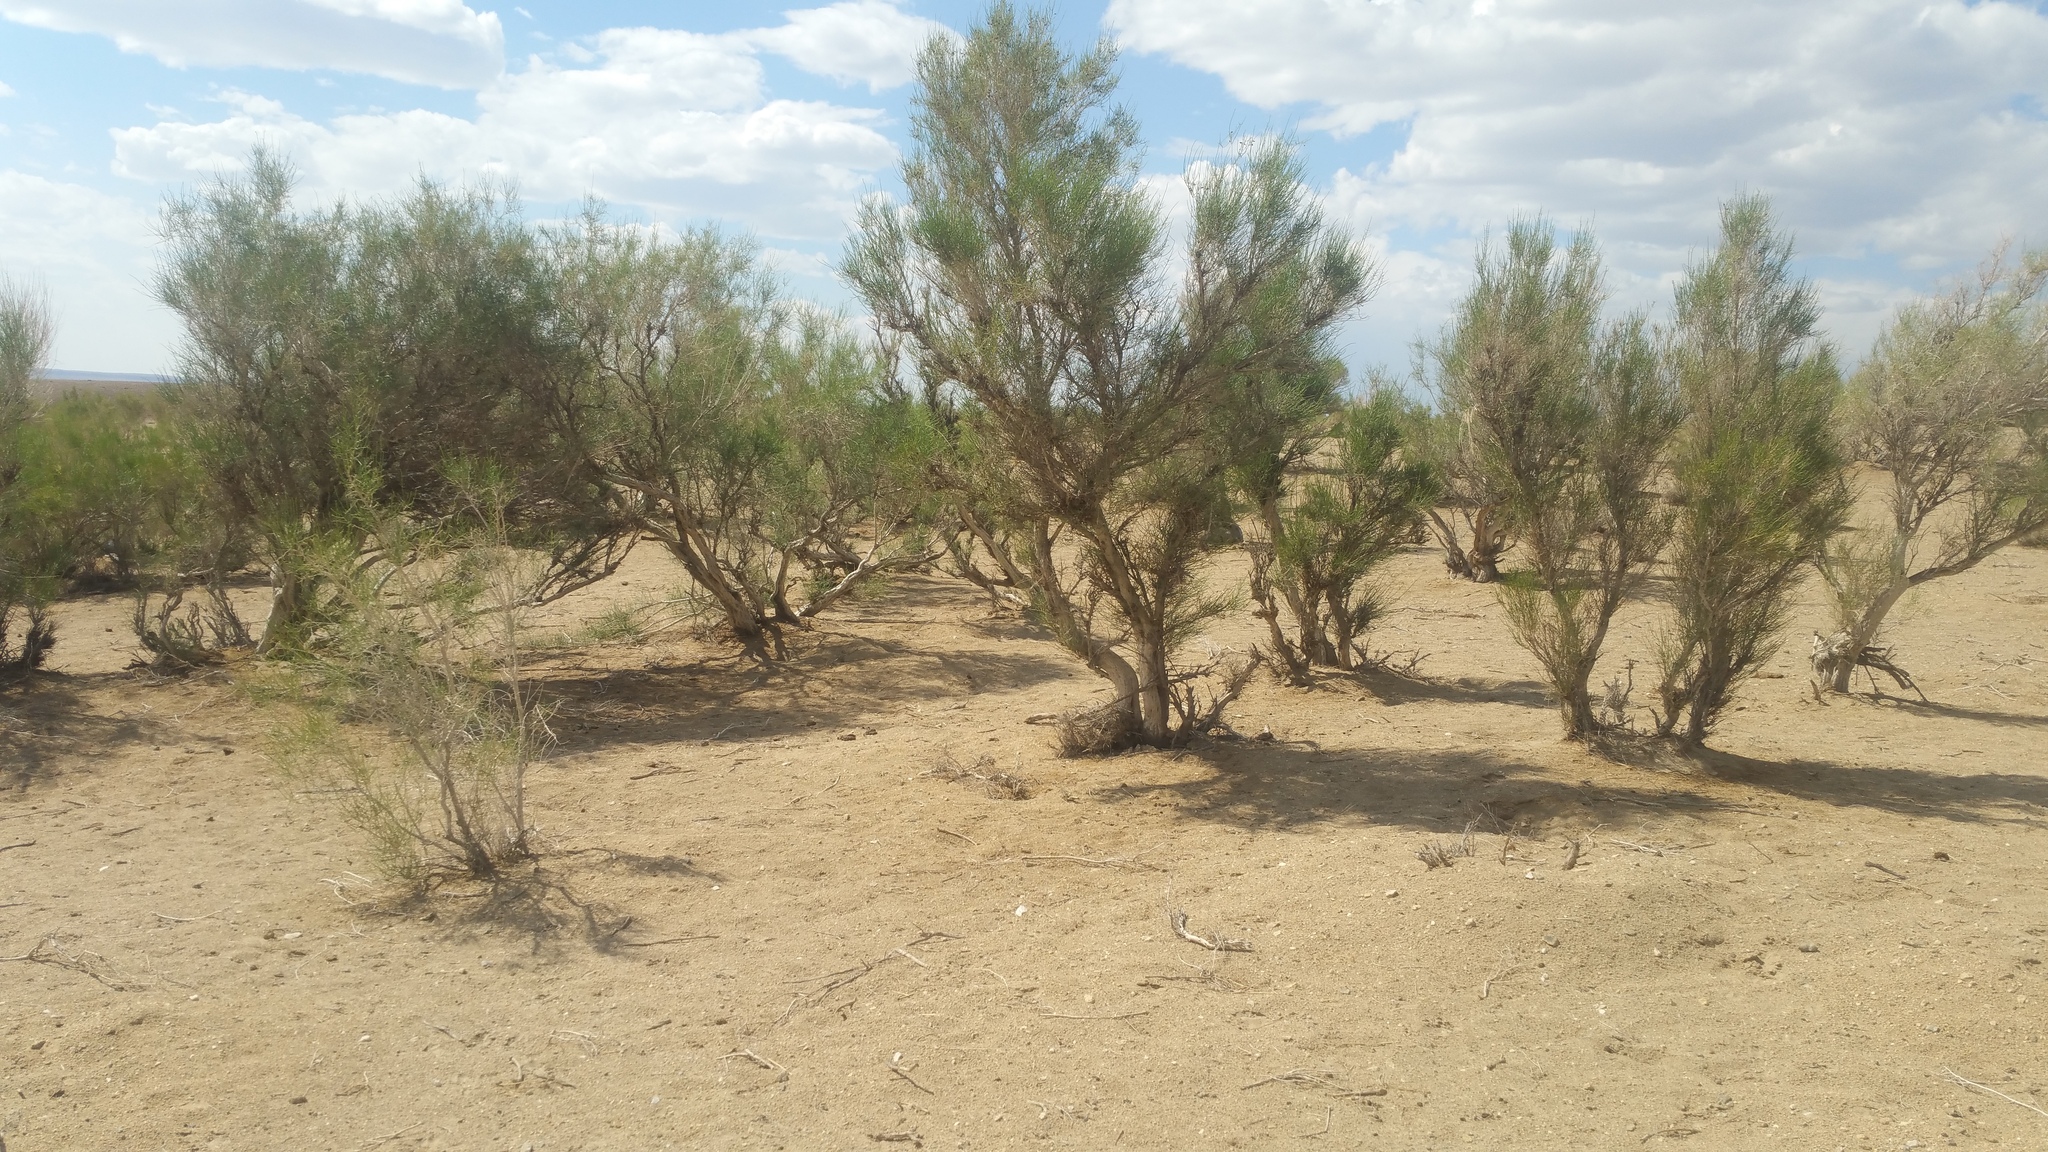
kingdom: Plantae
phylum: Tracheophyta
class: Magnoliopsida
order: Caryophyllales
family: Amaranthaceae
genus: Haloxylon
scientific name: Haloxylon ammodendron
